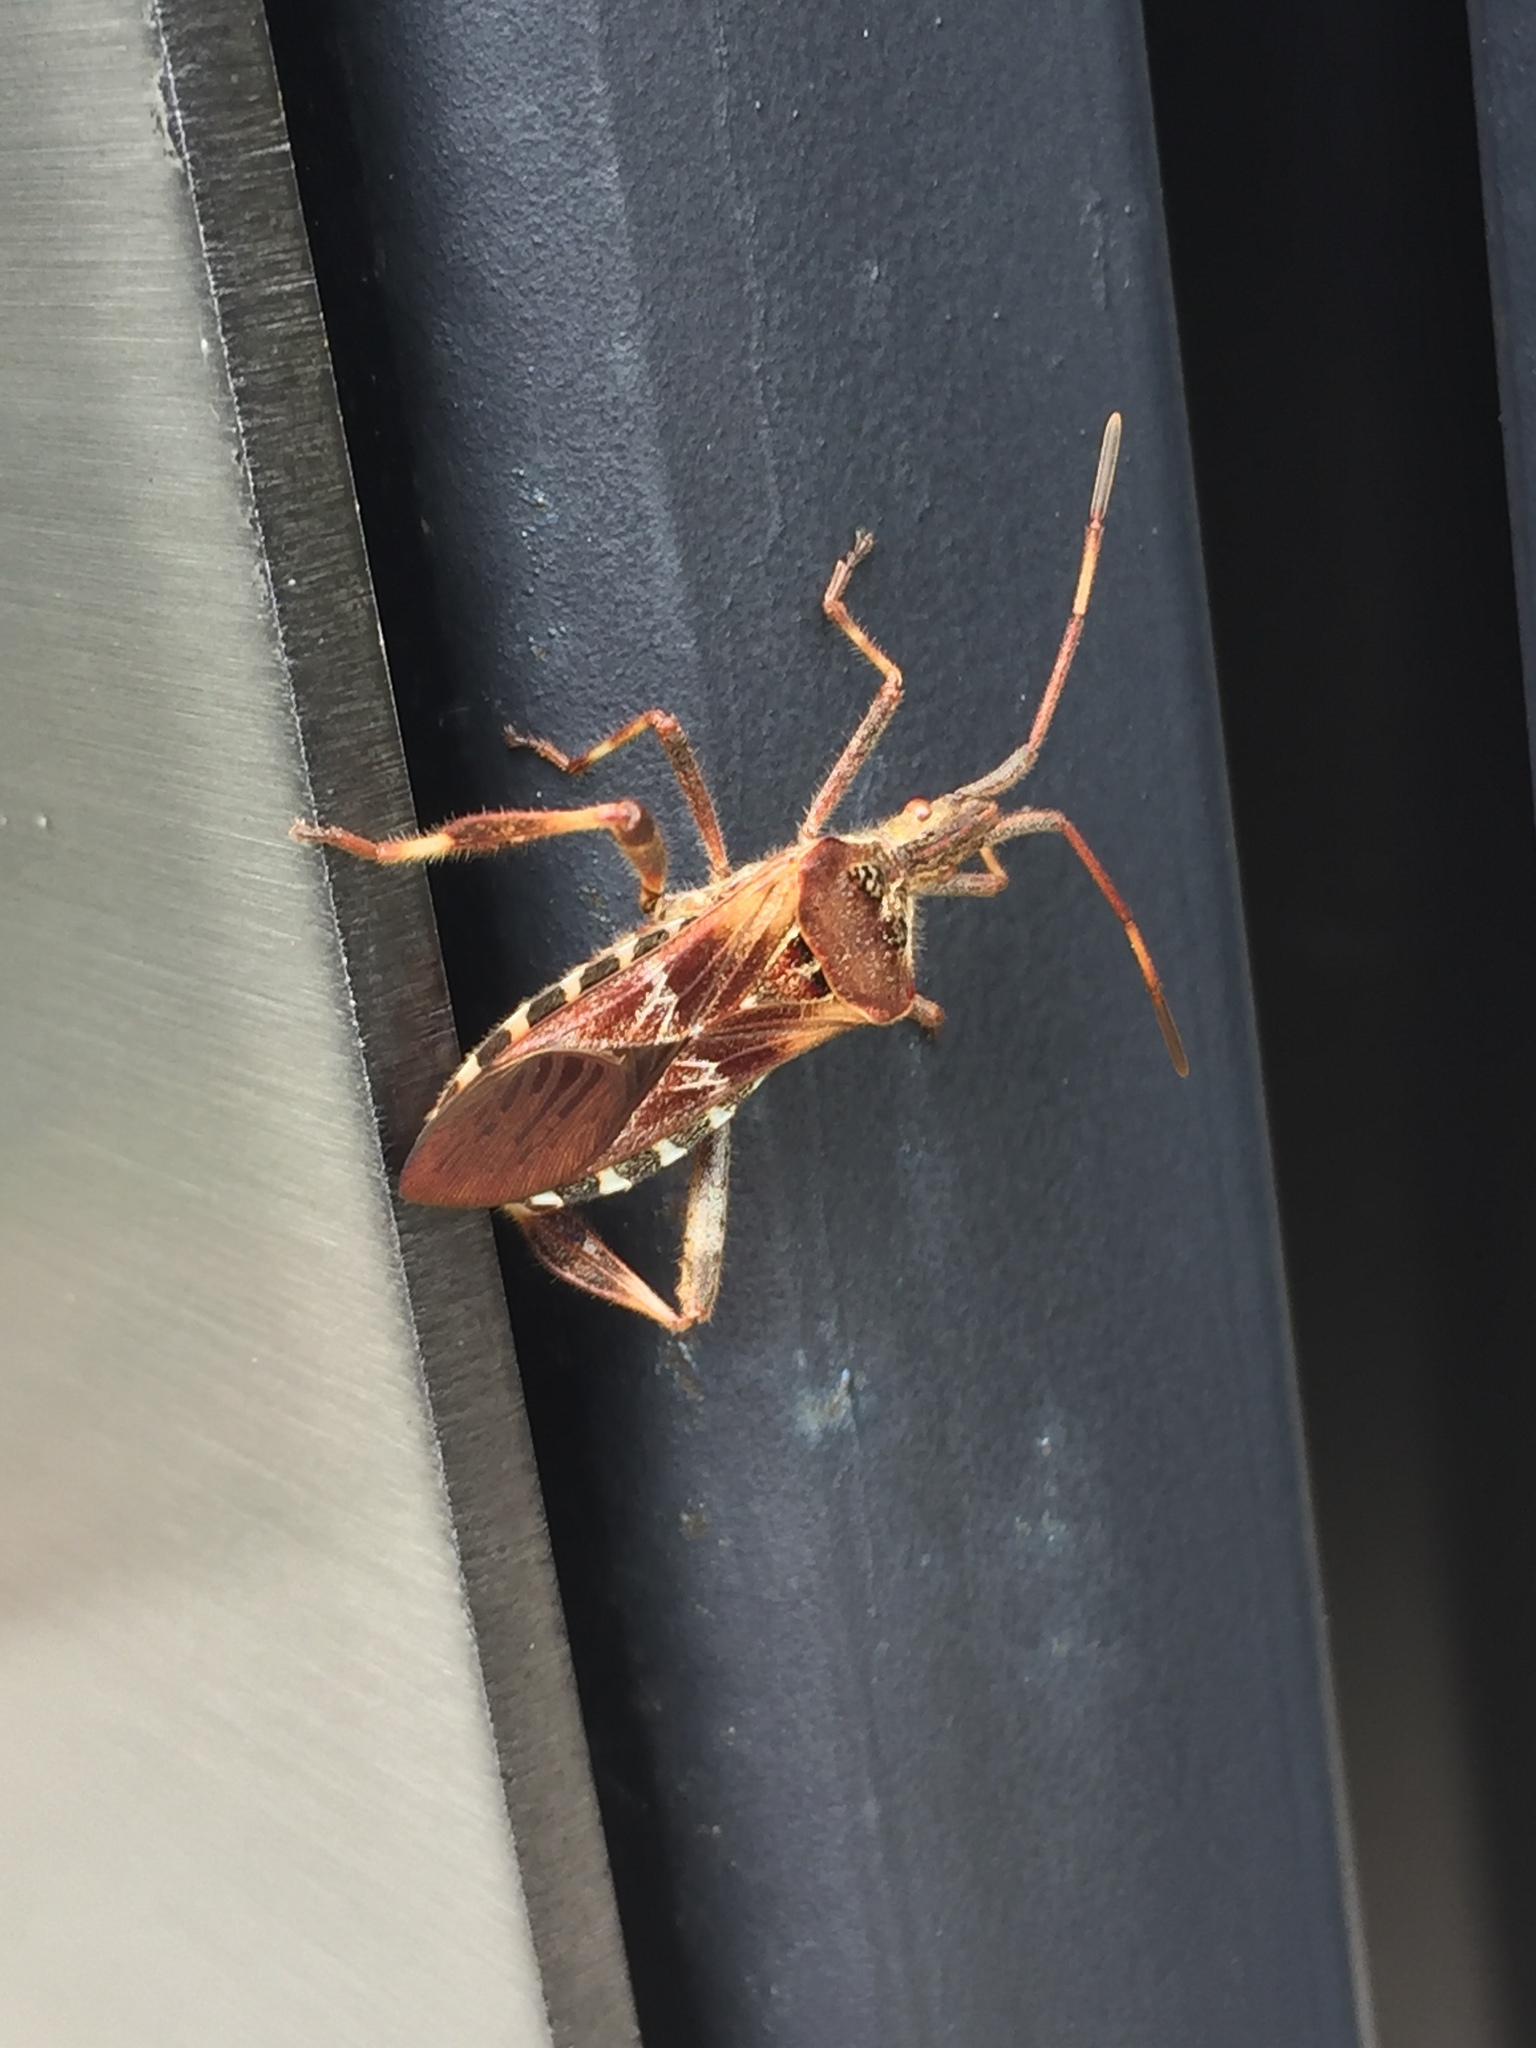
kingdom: Animalia
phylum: Arthropoda
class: Insecta
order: Hemiptera
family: Coreidae
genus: Leptoglossus
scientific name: Leptoglossus occidentalis
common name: Western conifer-seed bug
